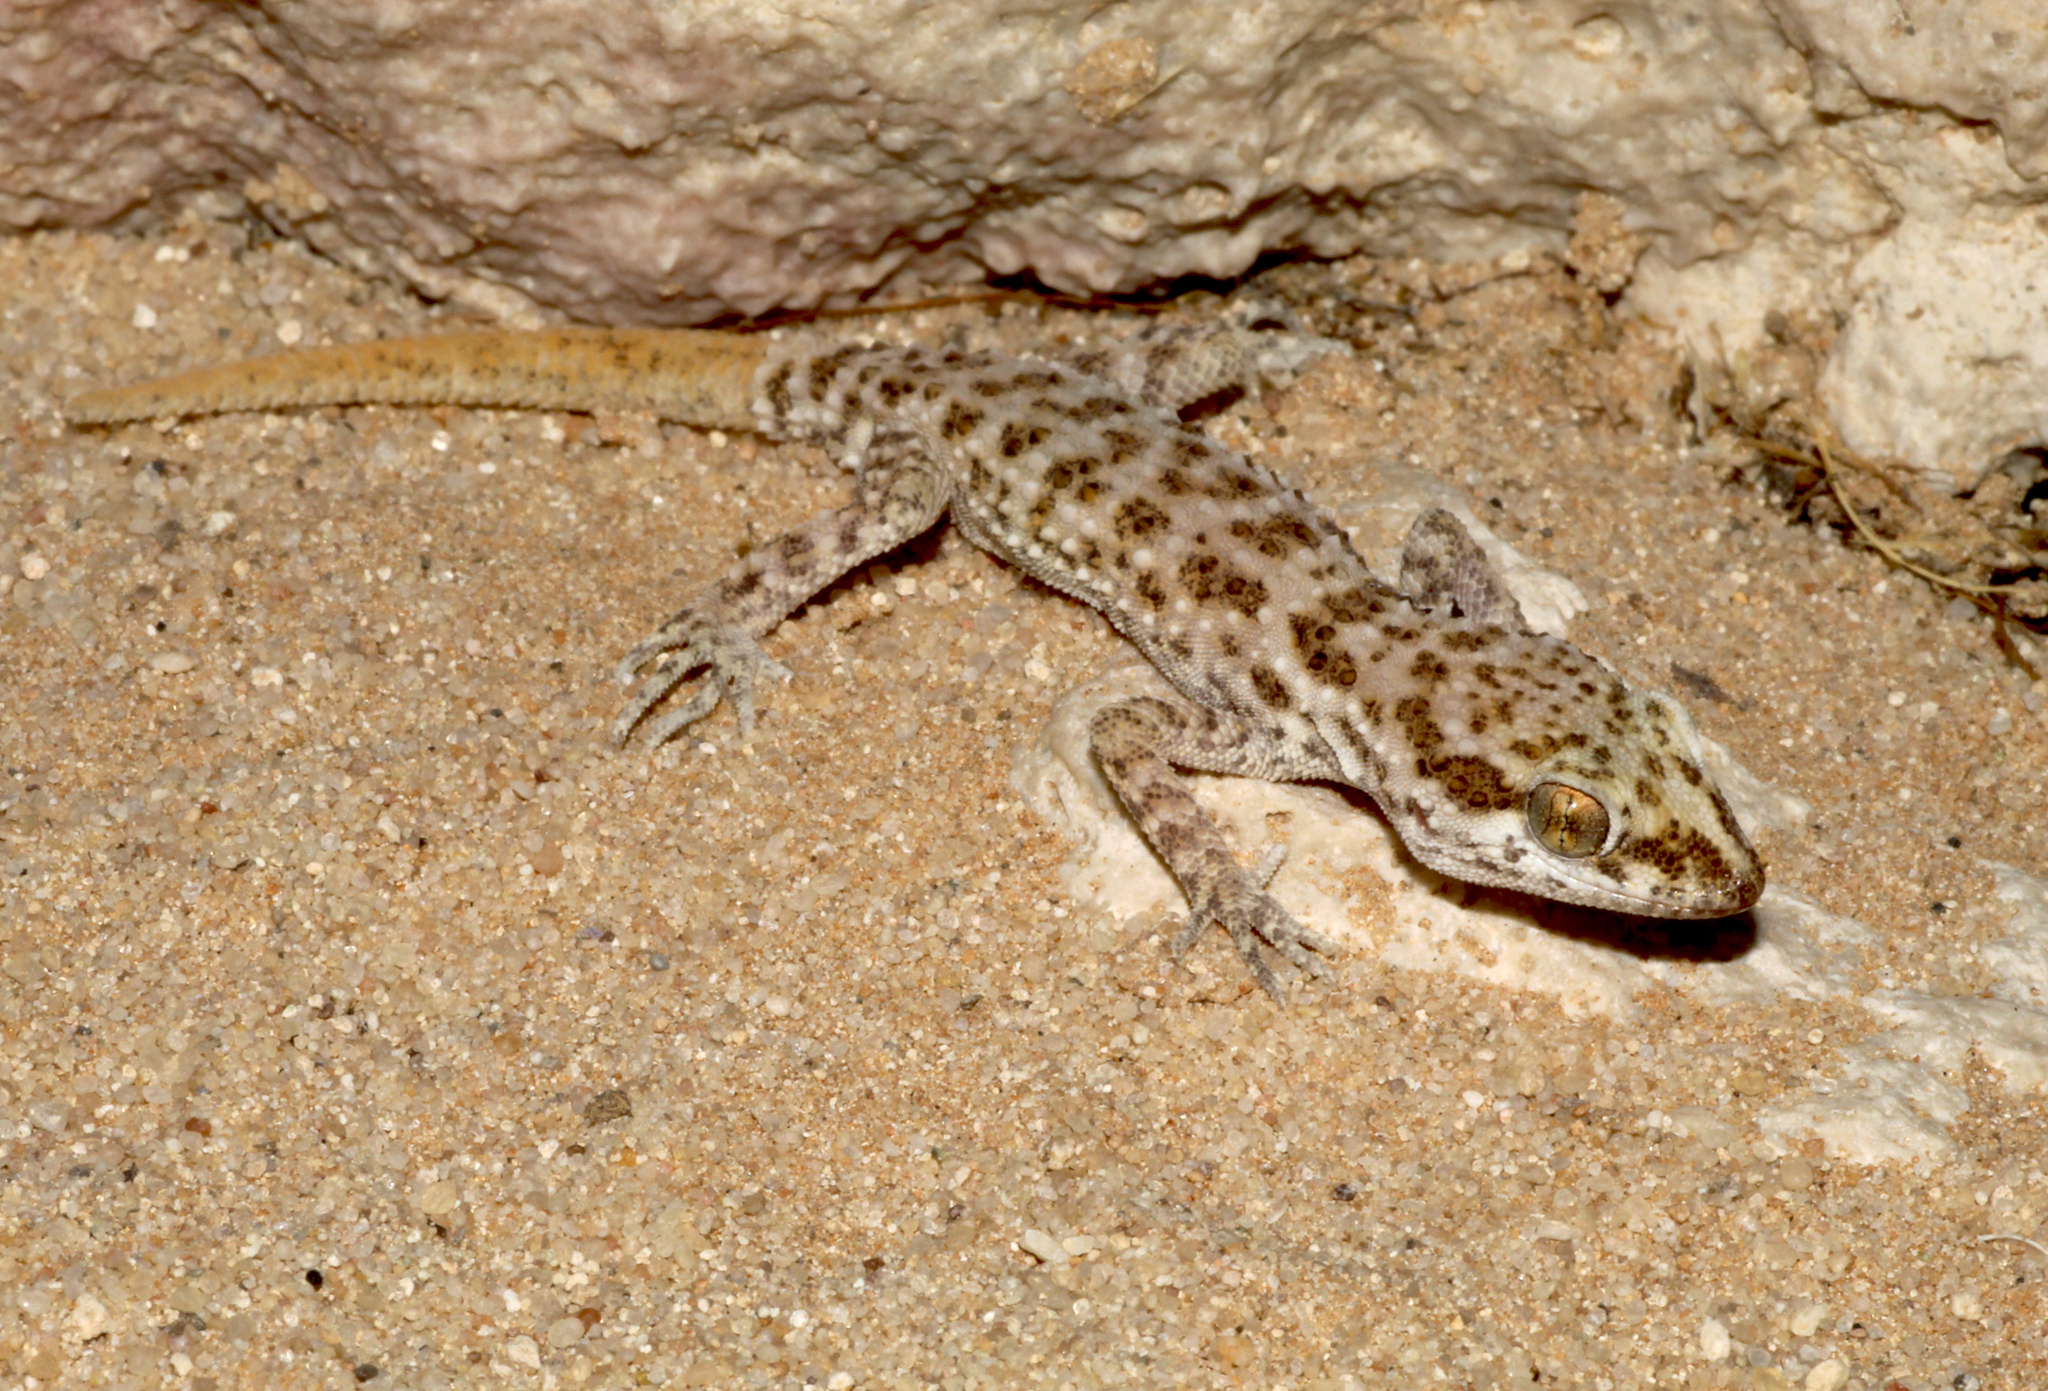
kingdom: Animalia
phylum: Chordata
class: Squamata
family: Gekkonidae
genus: Bunopus
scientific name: Bunopus tuberculatus
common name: Southern tuberculated gecko
